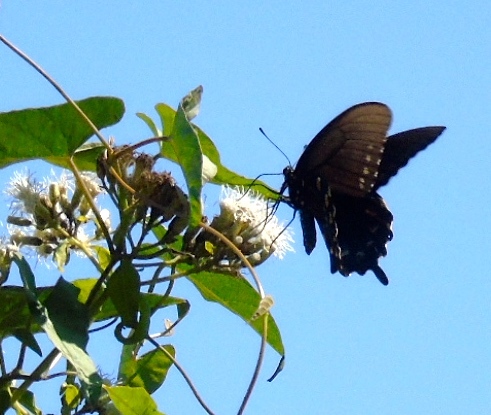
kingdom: Animalia
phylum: Arthropoda
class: Insecta
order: Lepidoptera
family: Papilionidae
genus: Battus
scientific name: Battus philenor
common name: Pipevine swallowtail
